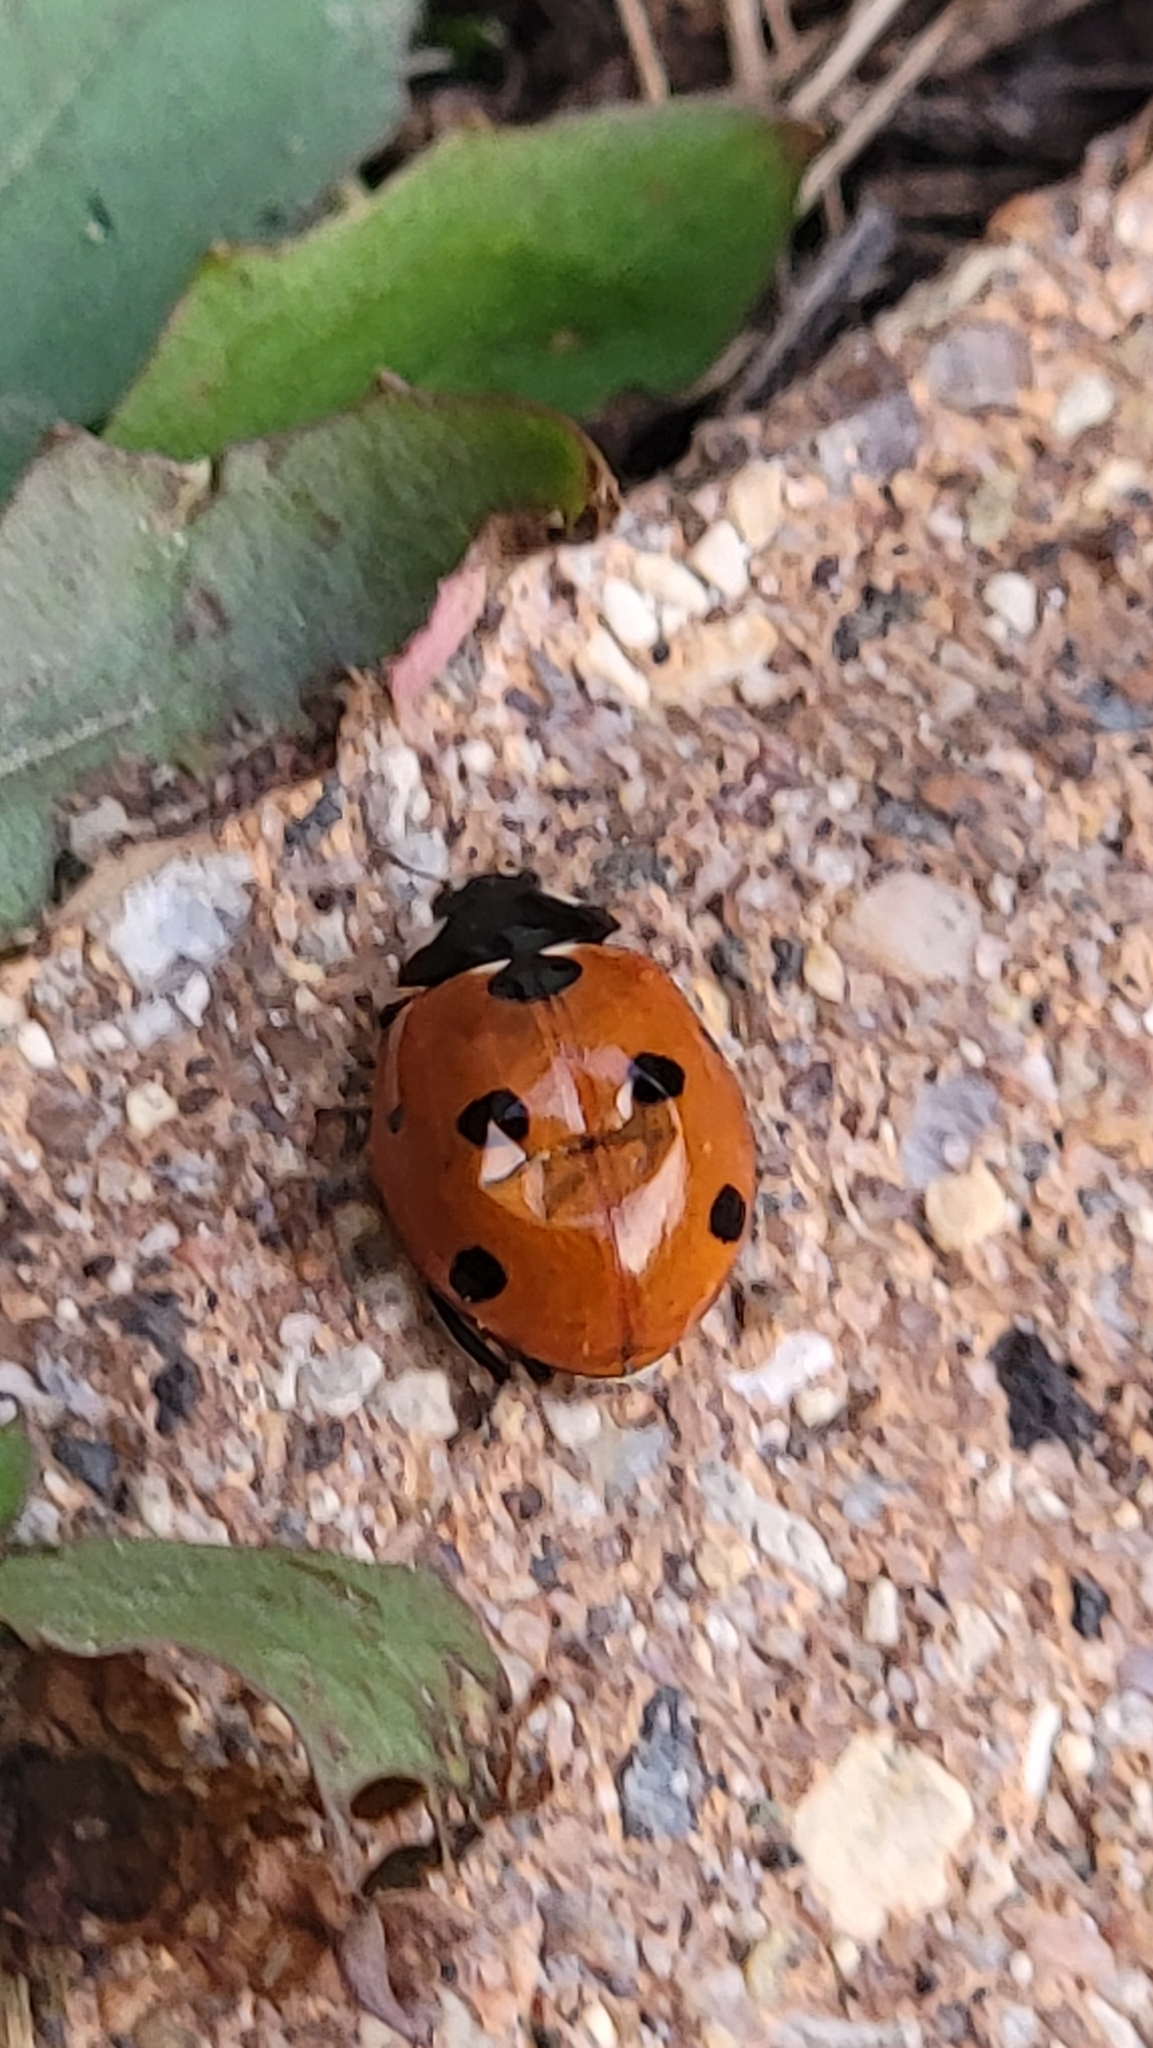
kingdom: Animalia
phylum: Arthropoda
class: Insecta
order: Coleoptera
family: Coccinellidae
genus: Coccinella
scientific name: Coccinella septempunctata
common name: Sevenspotted lady beetle
